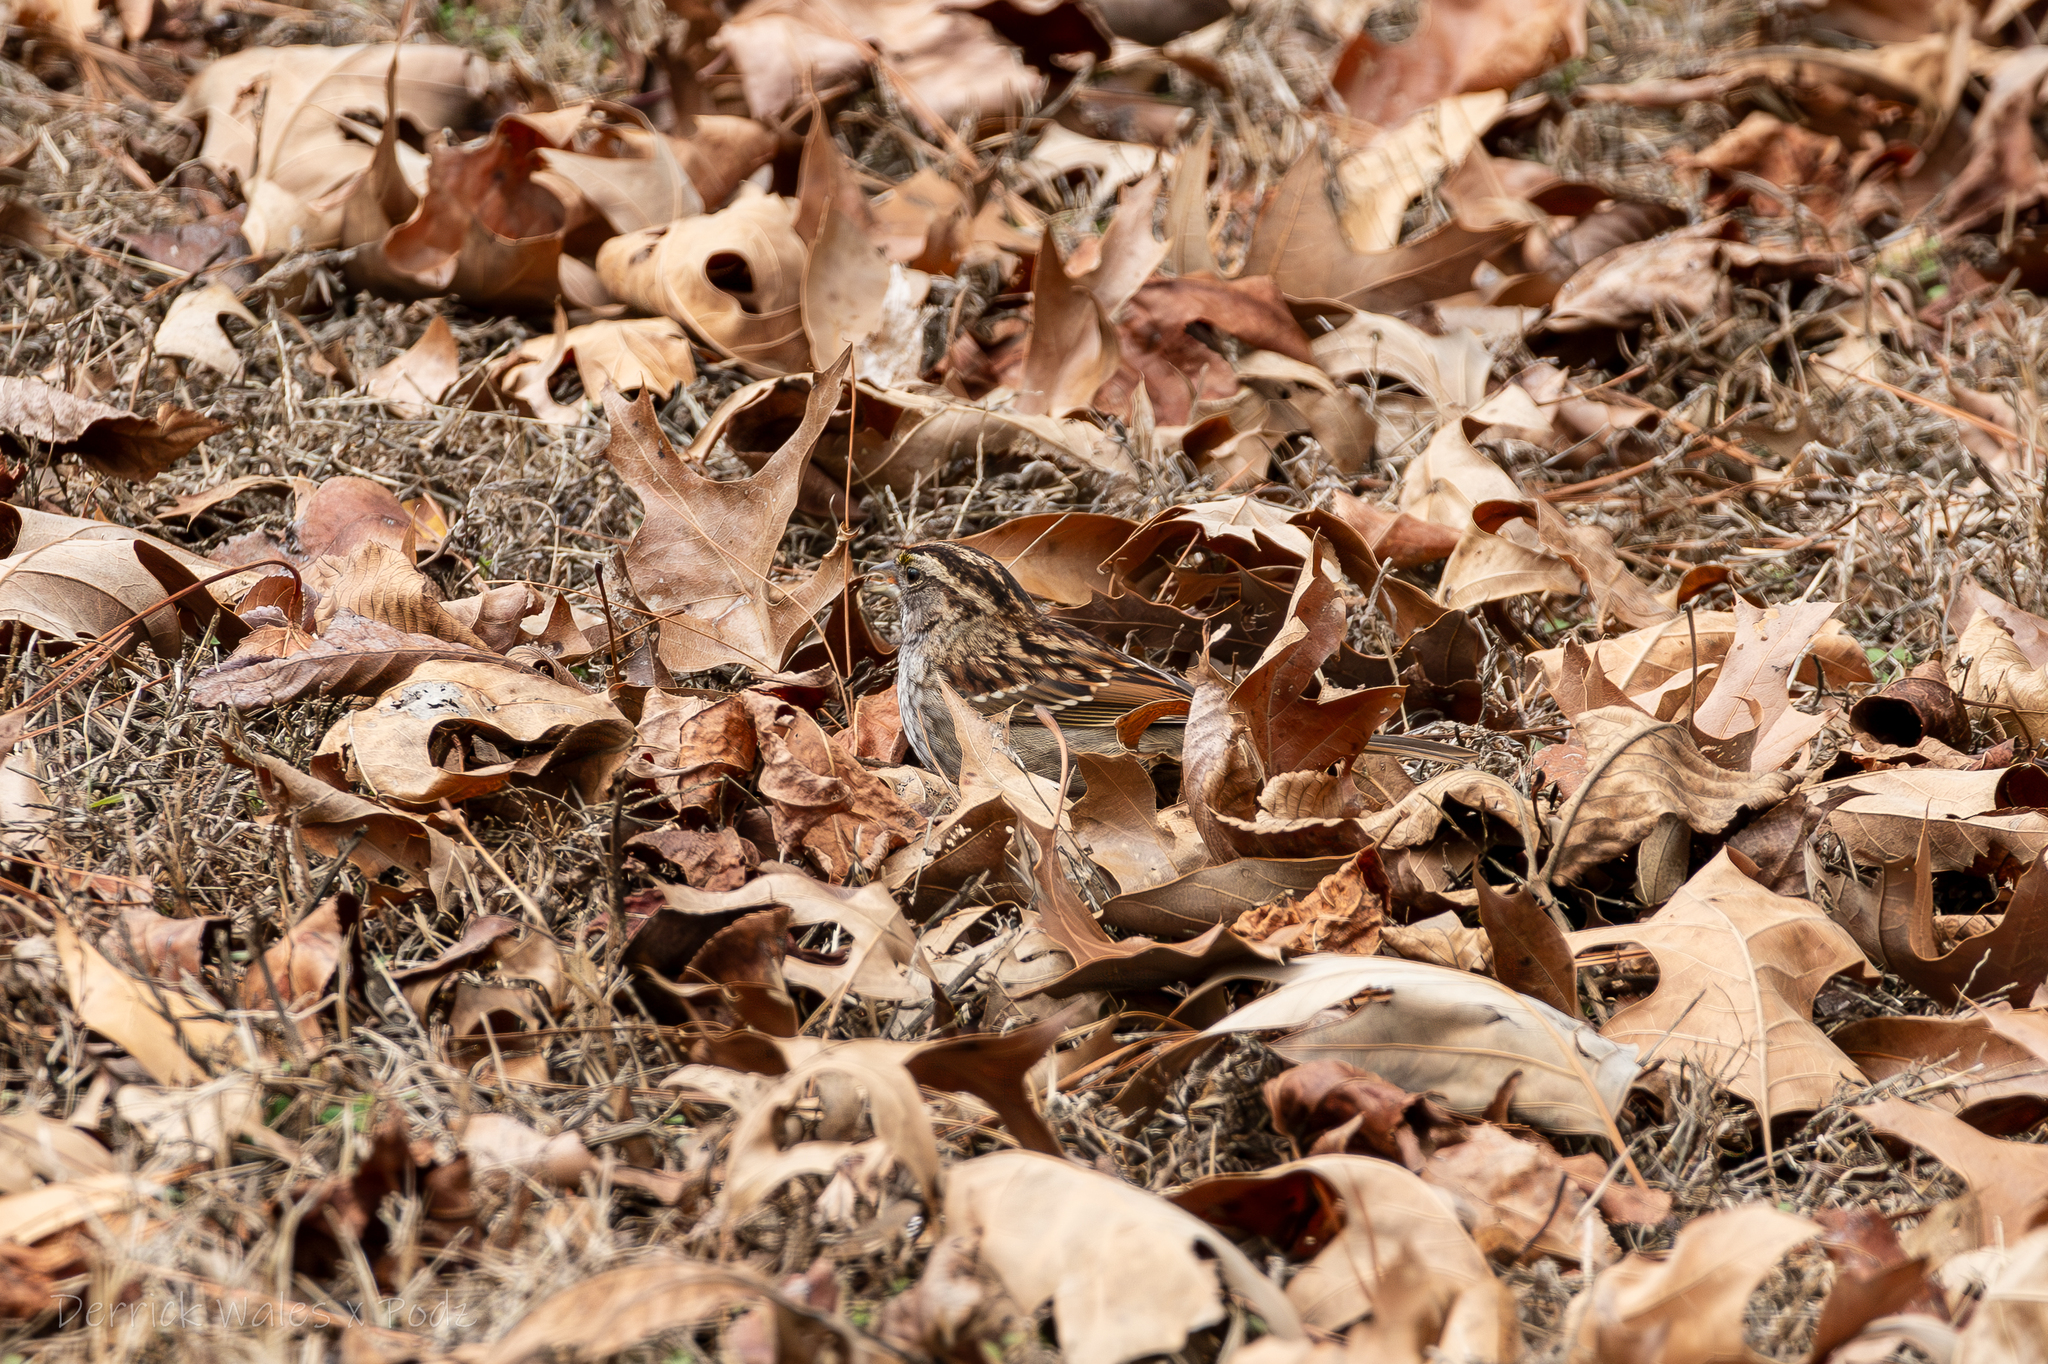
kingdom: Animalia
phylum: Chordata
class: Aves
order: Passeriformes
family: Passerellidae
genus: Zonotrichia
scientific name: Zonotrichia albicollis
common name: White-throated sparrow
